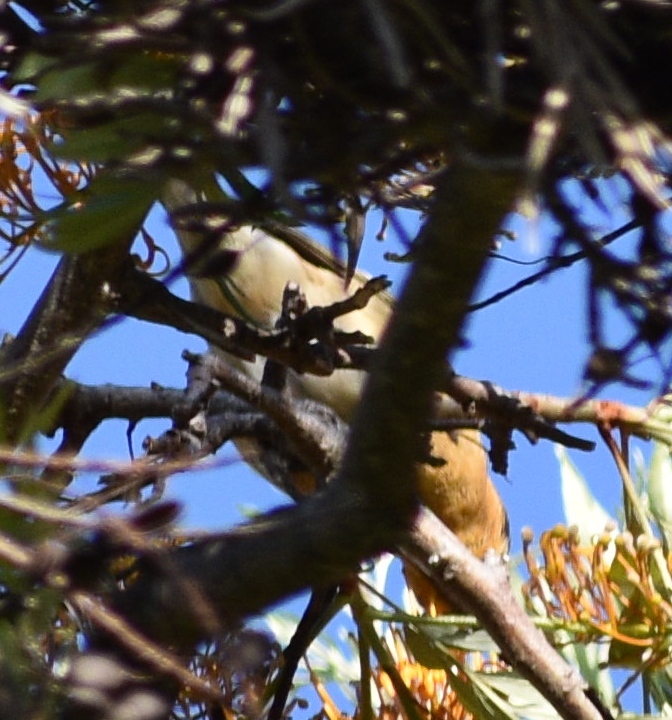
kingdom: Animalia
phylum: Chordata
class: Aves
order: Passeriformes
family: Cardinalidae
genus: Pheucticus
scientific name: Pheucticus melanocephalus
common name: Black-headed grosbeak
